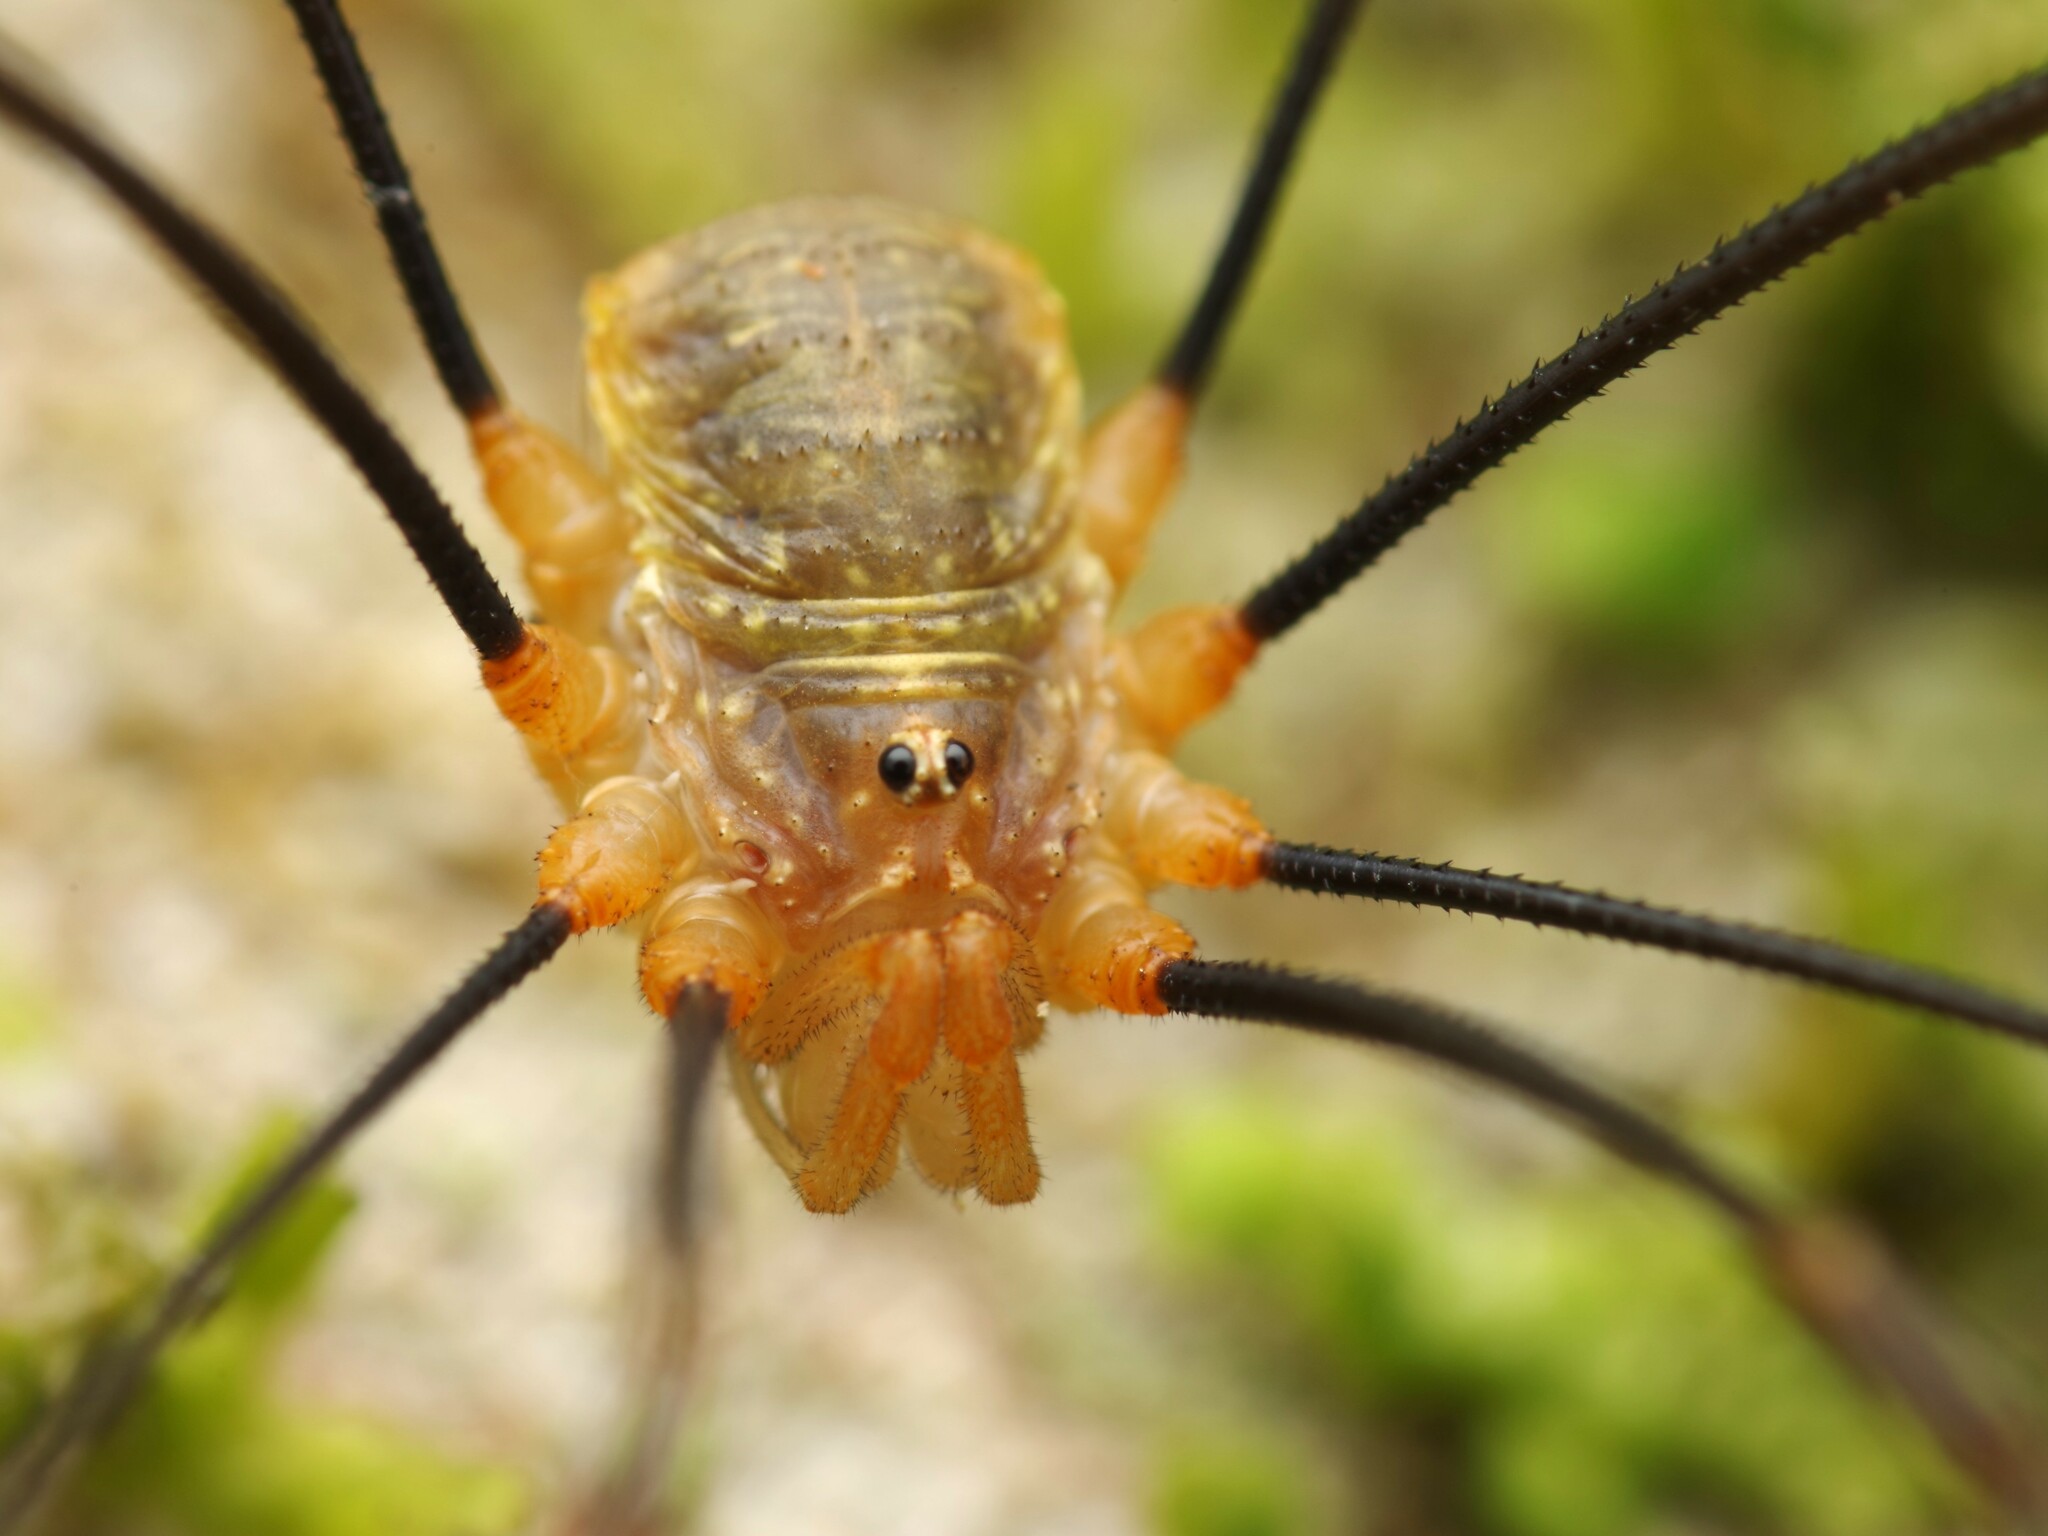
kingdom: Animalia
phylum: Arthropoda
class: Arachnida
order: Opiliones
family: Phalangiidae
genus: Opilio
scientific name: Opilio canestrinii
